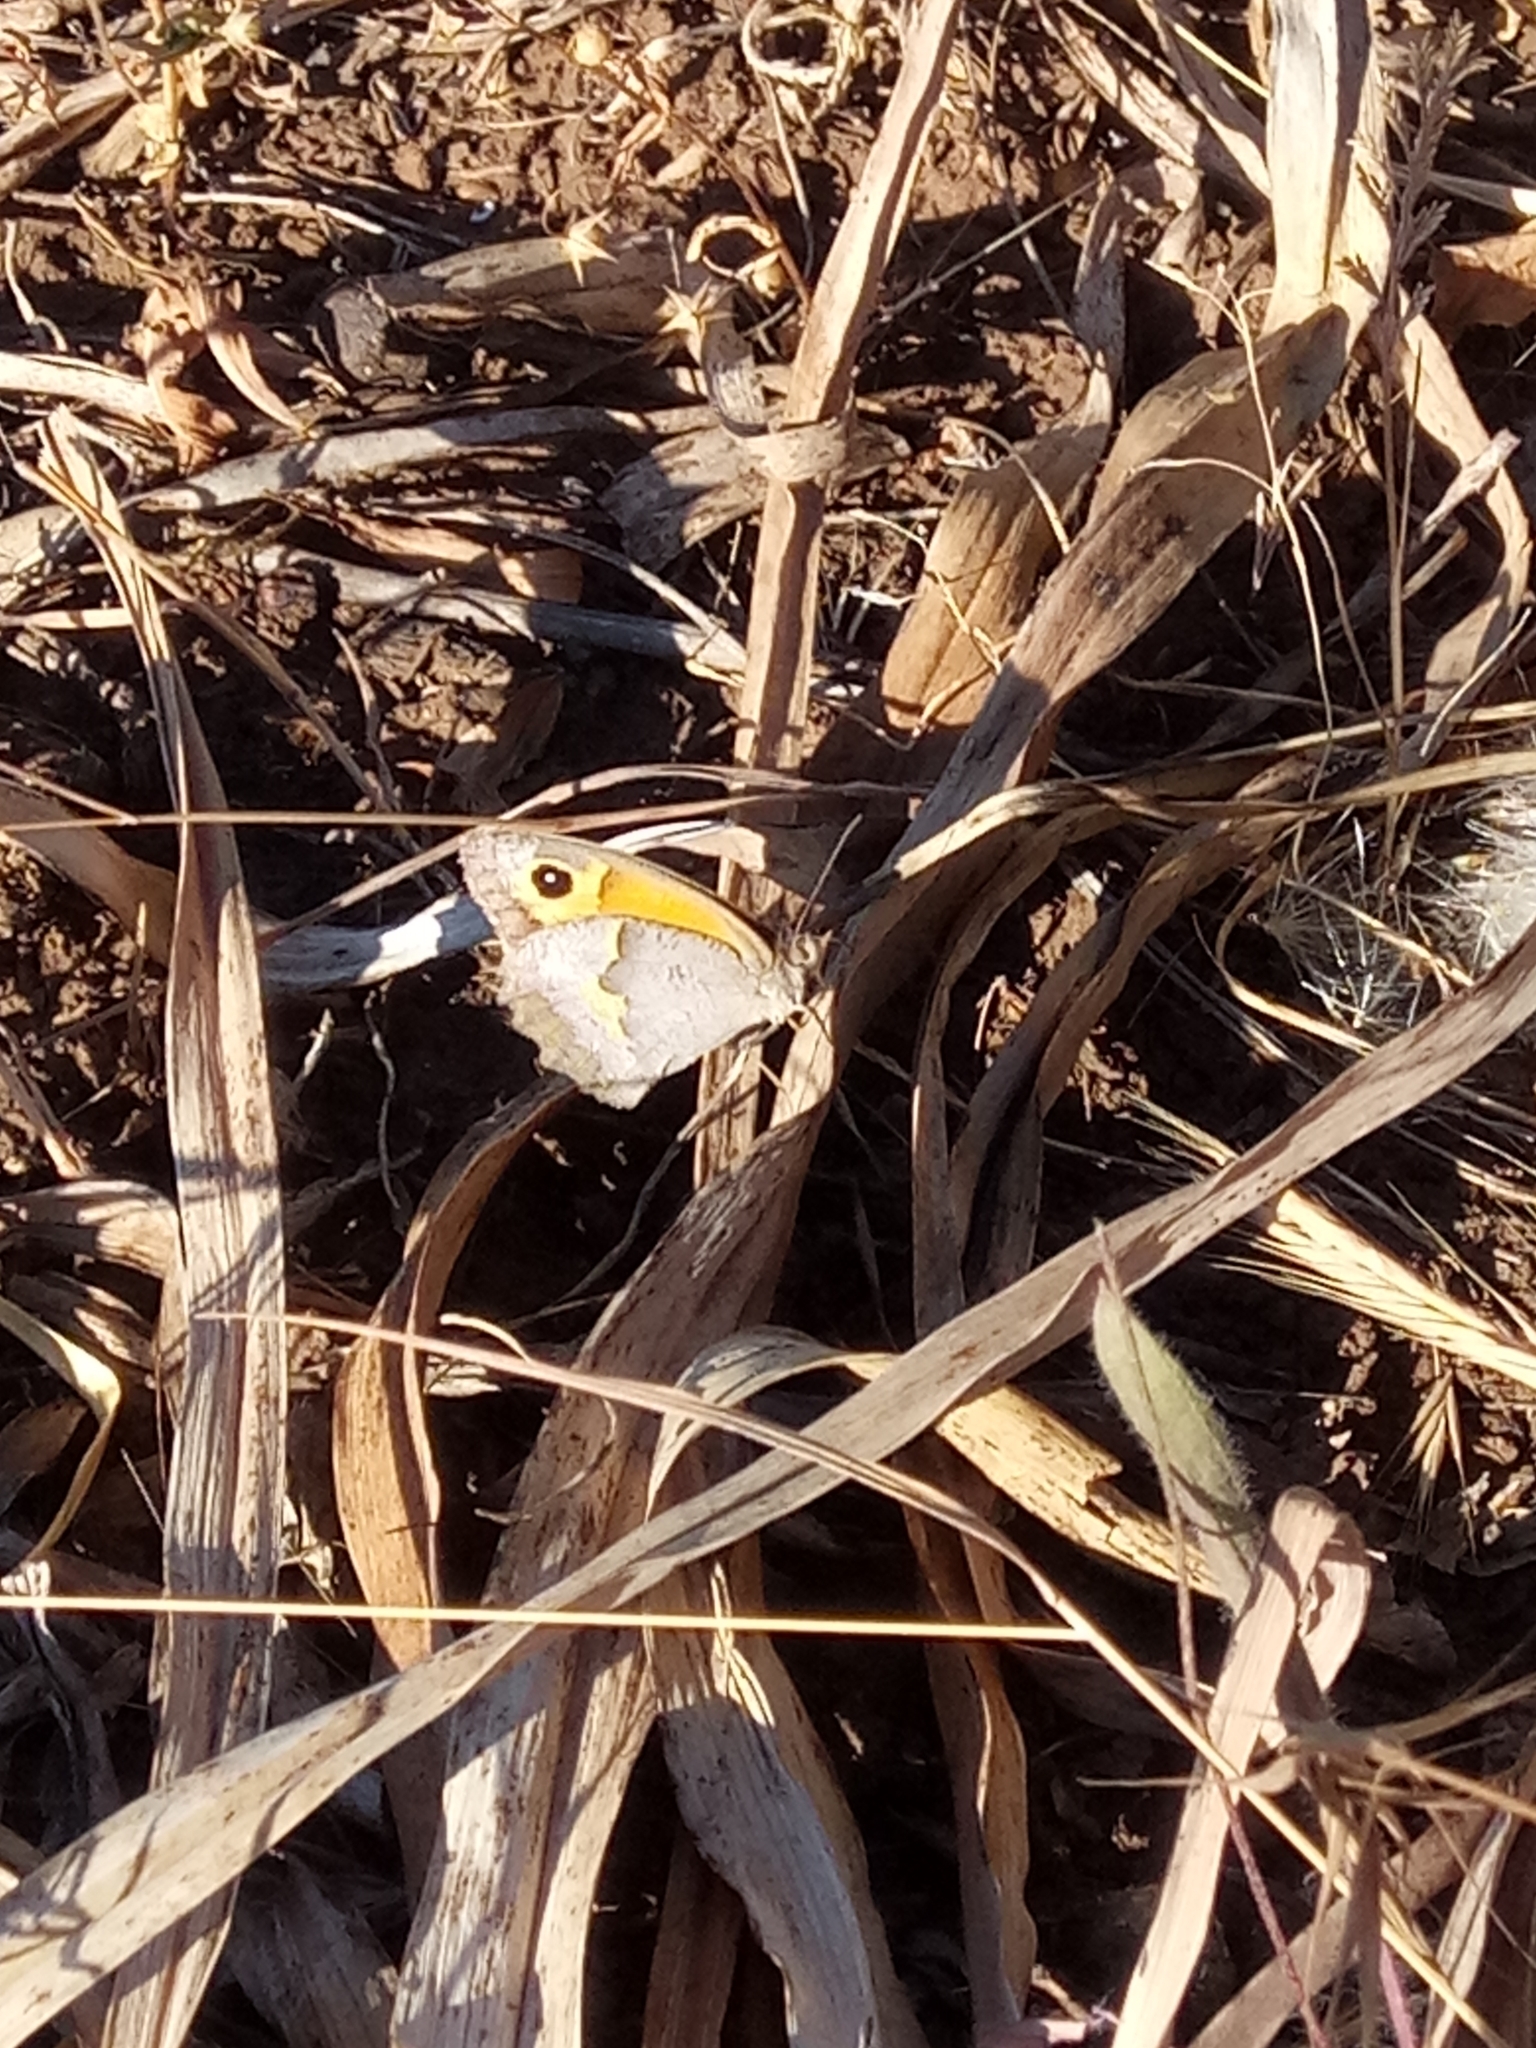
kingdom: Animalia
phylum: Arthropoda
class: Insecta
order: Lepidoptera
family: Nymphalidae
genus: Maniola
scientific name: Maniola jurtina
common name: Meadow brown
